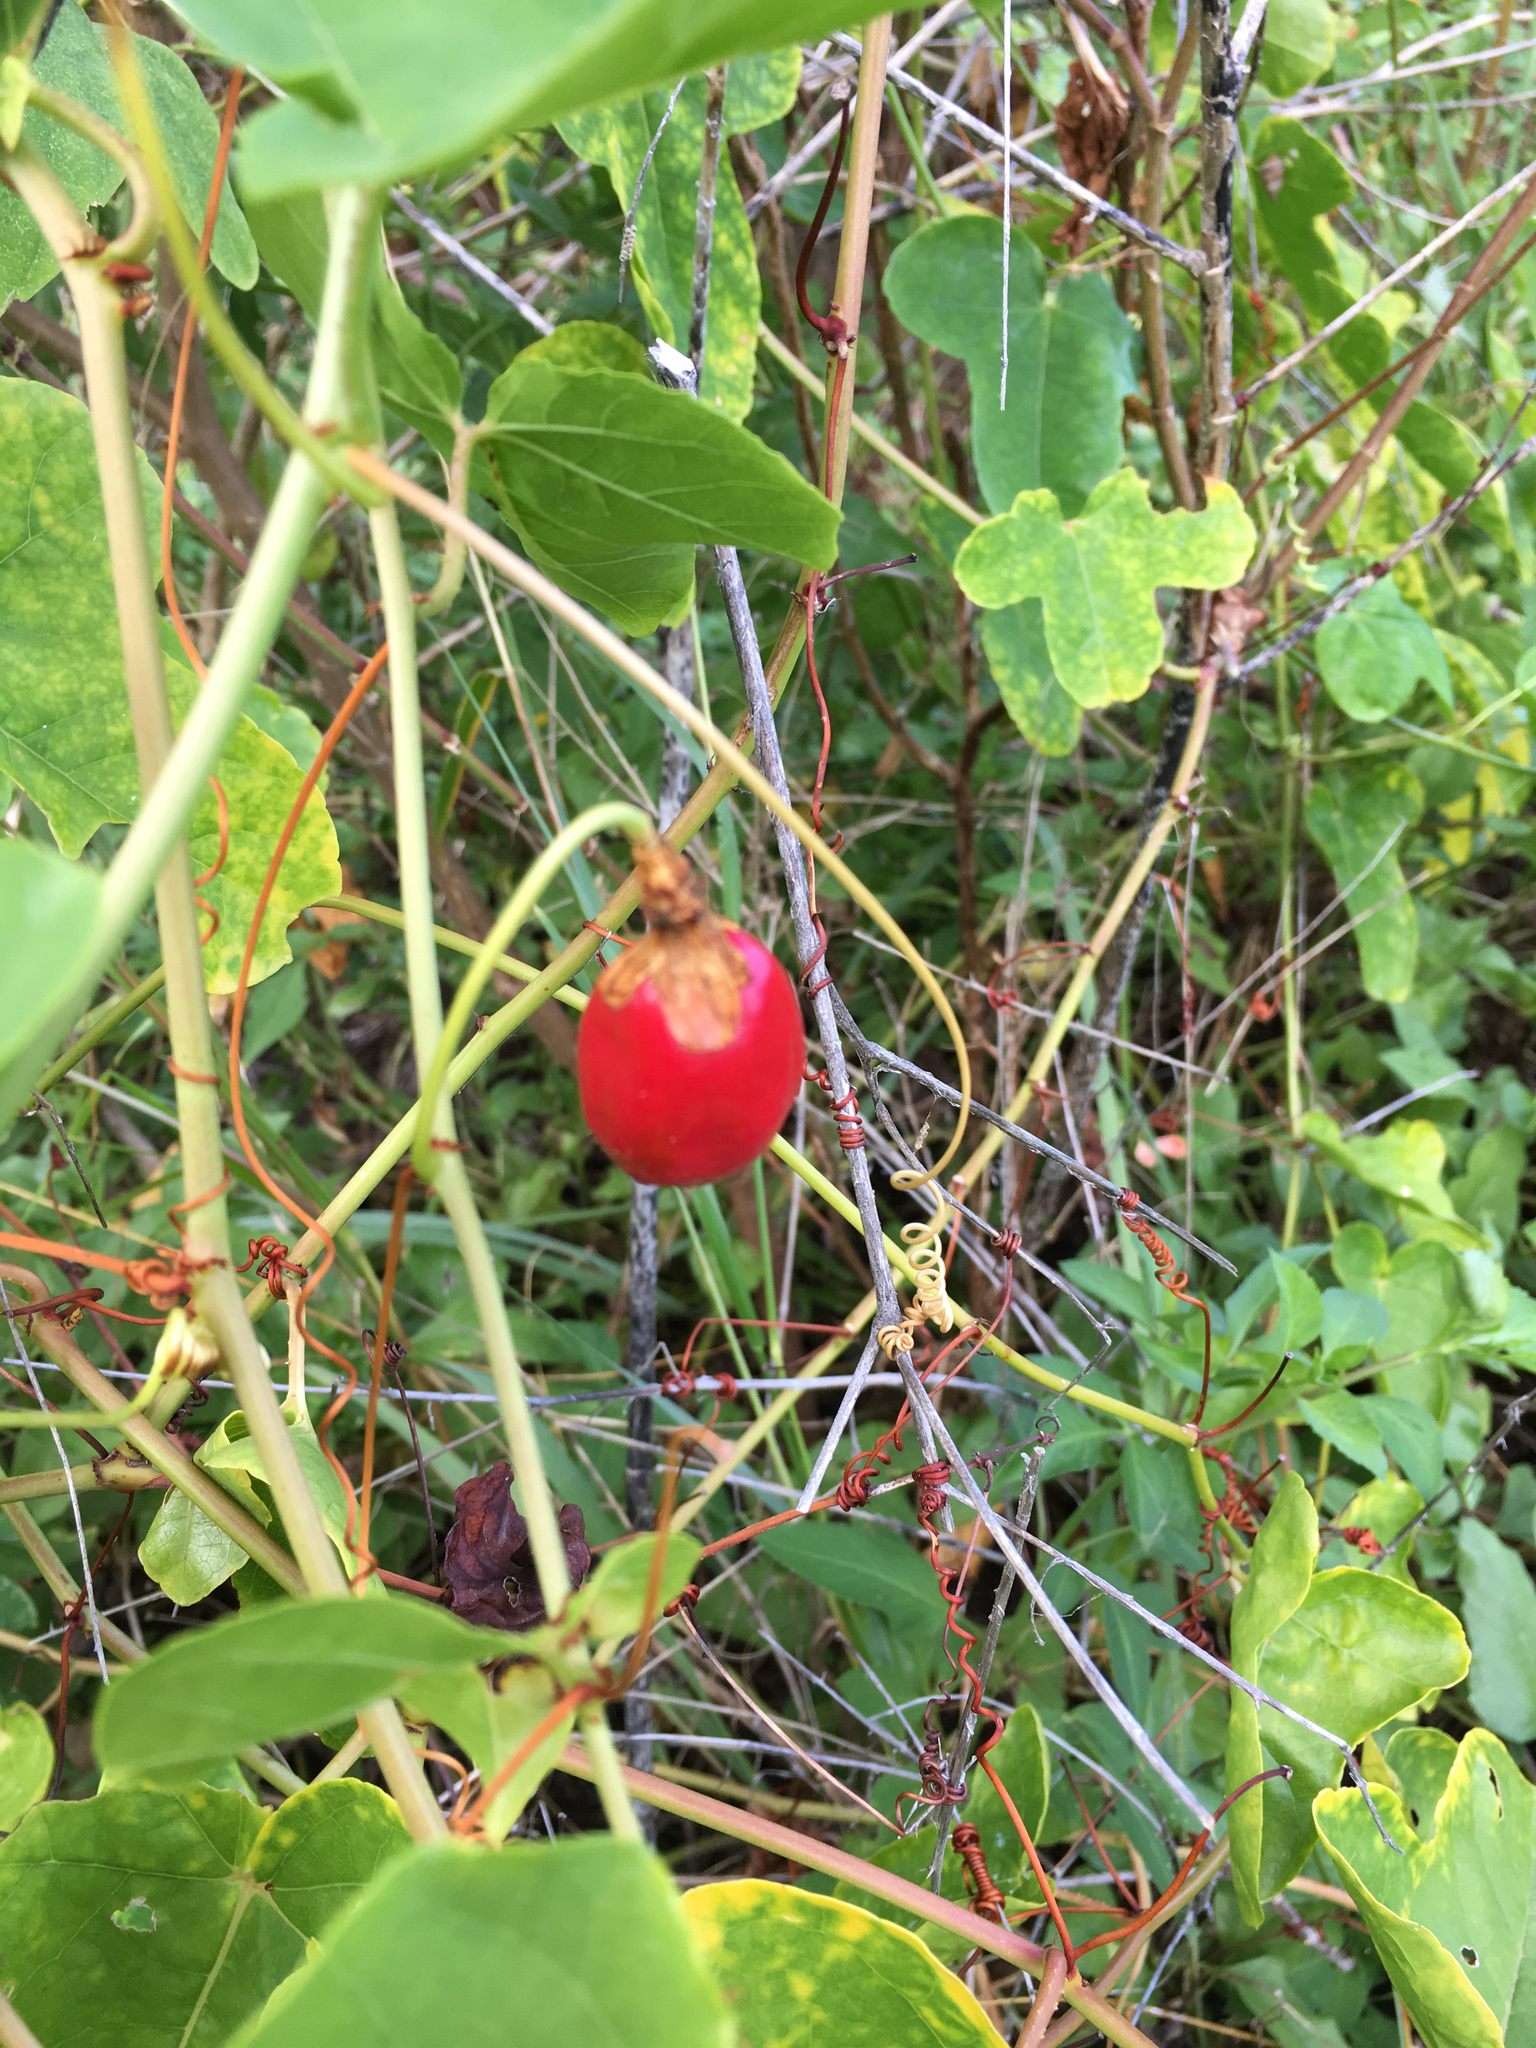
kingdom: Plantae
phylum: Tracheophyta
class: Magnoliopsida
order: Malpighiales
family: Passifloraceae
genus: Passiflora
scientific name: Passiflora ciliata
